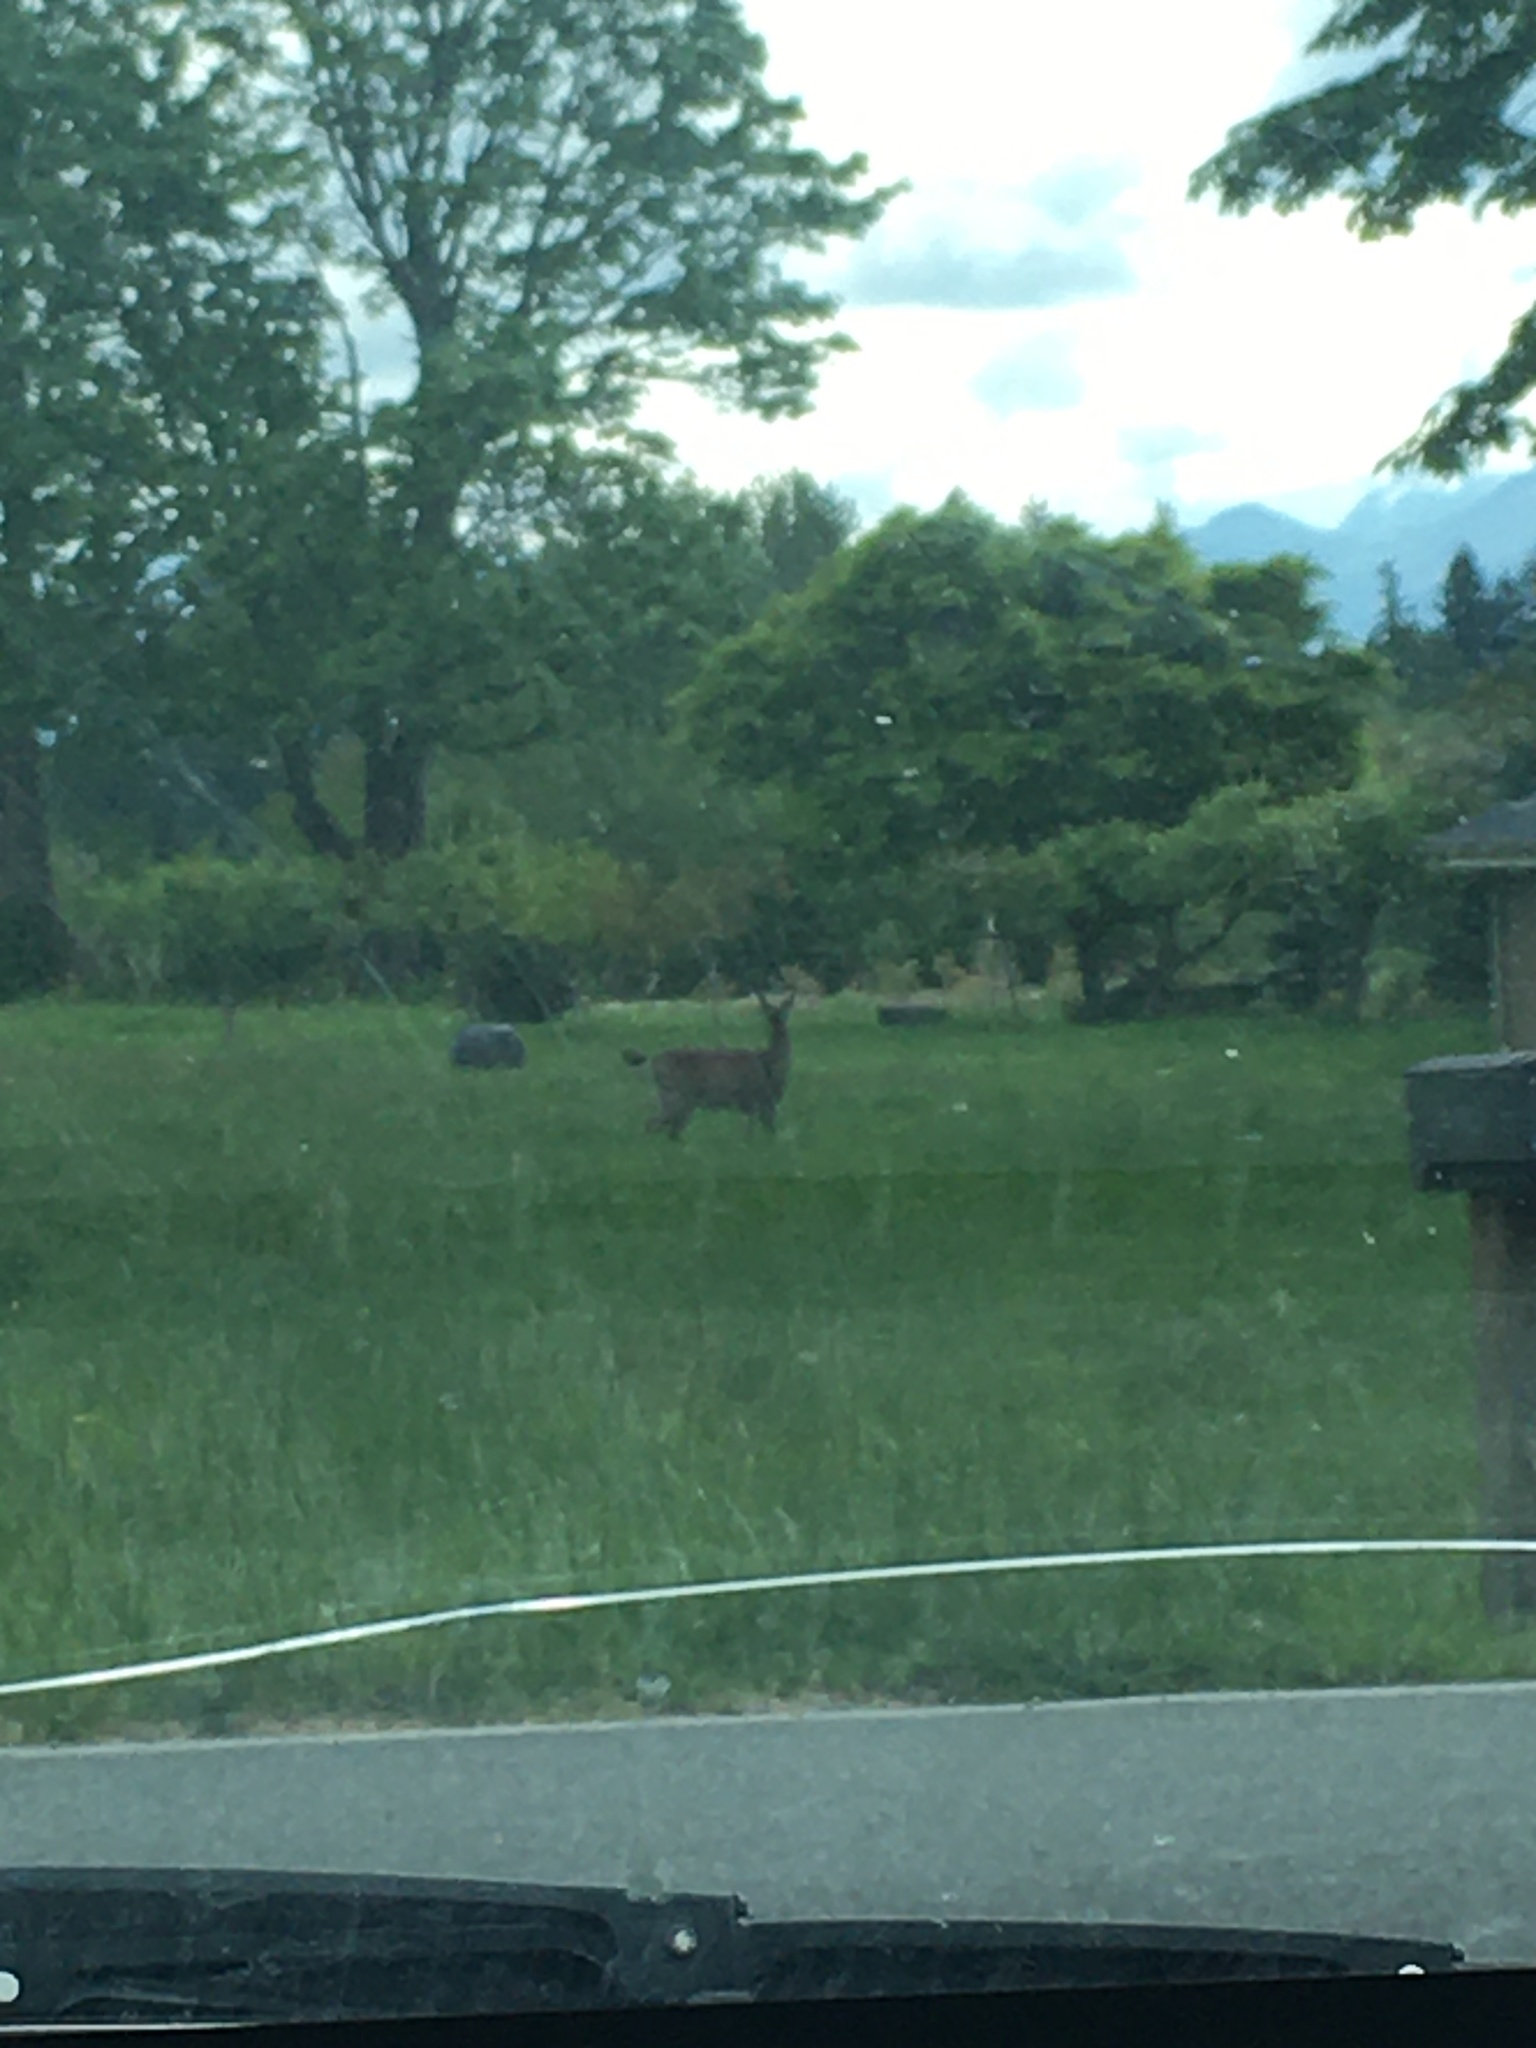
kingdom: Animalia
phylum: Chordata
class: Mammalia
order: Artiodactyla
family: Cervidae
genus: Odocoileus
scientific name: Odocoileus hemionus
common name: Mule deer
